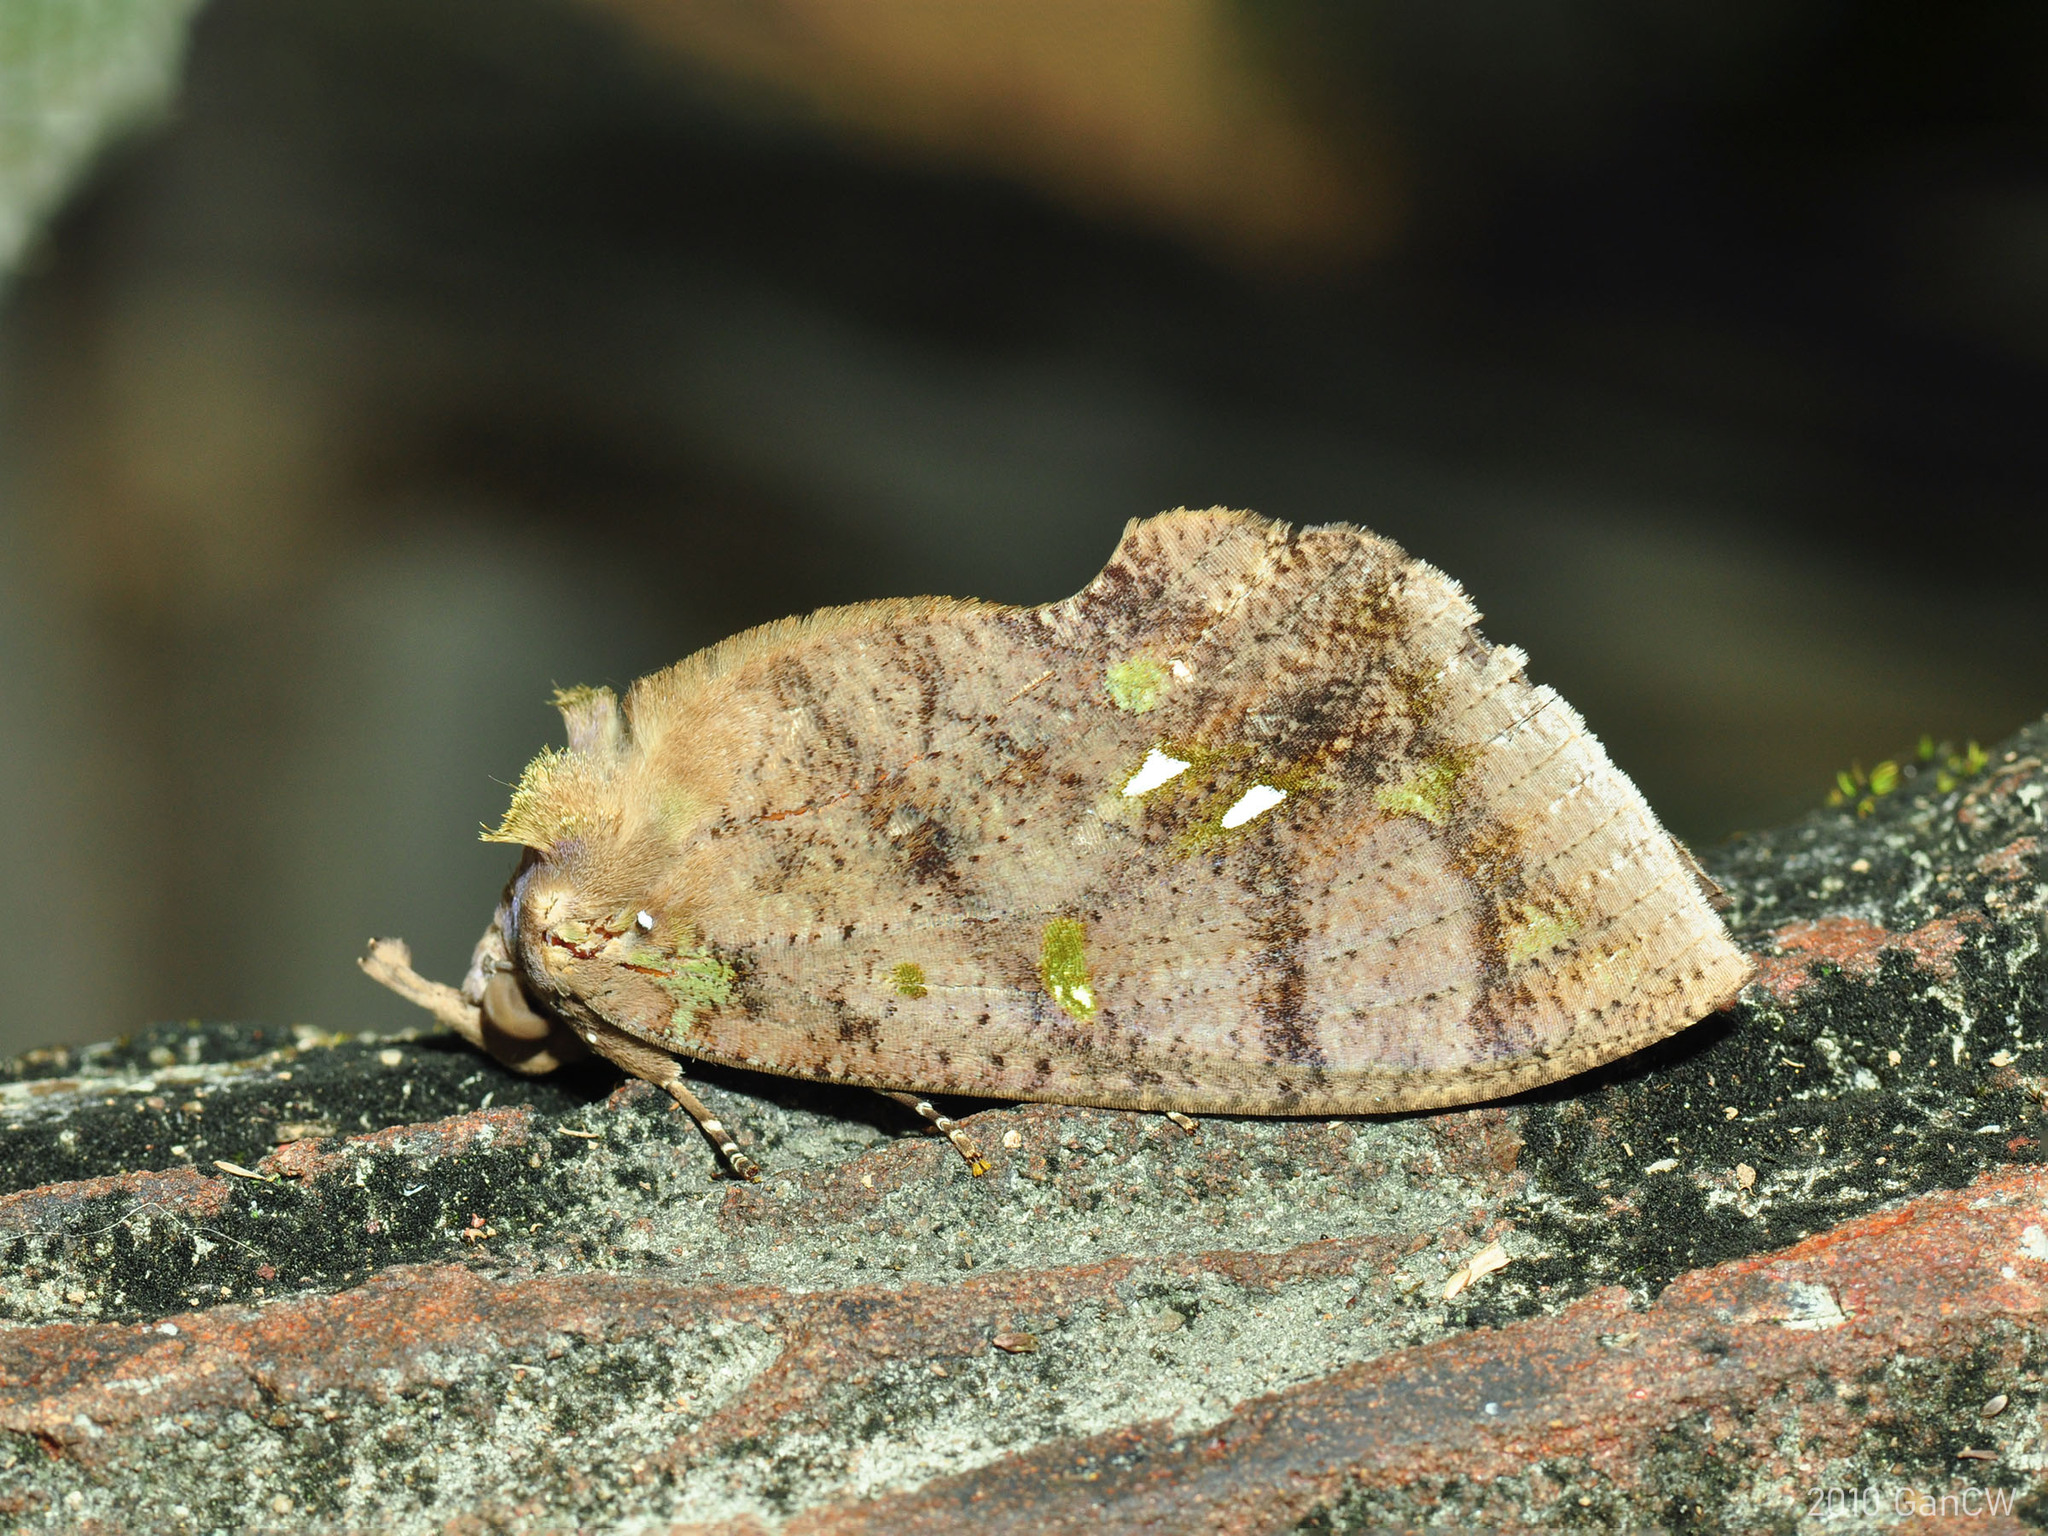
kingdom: Animalia
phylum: Arthropoda
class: Insecta
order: Lepidoptera
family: Erebidae
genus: Eudocima
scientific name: Eudocima discrepans
